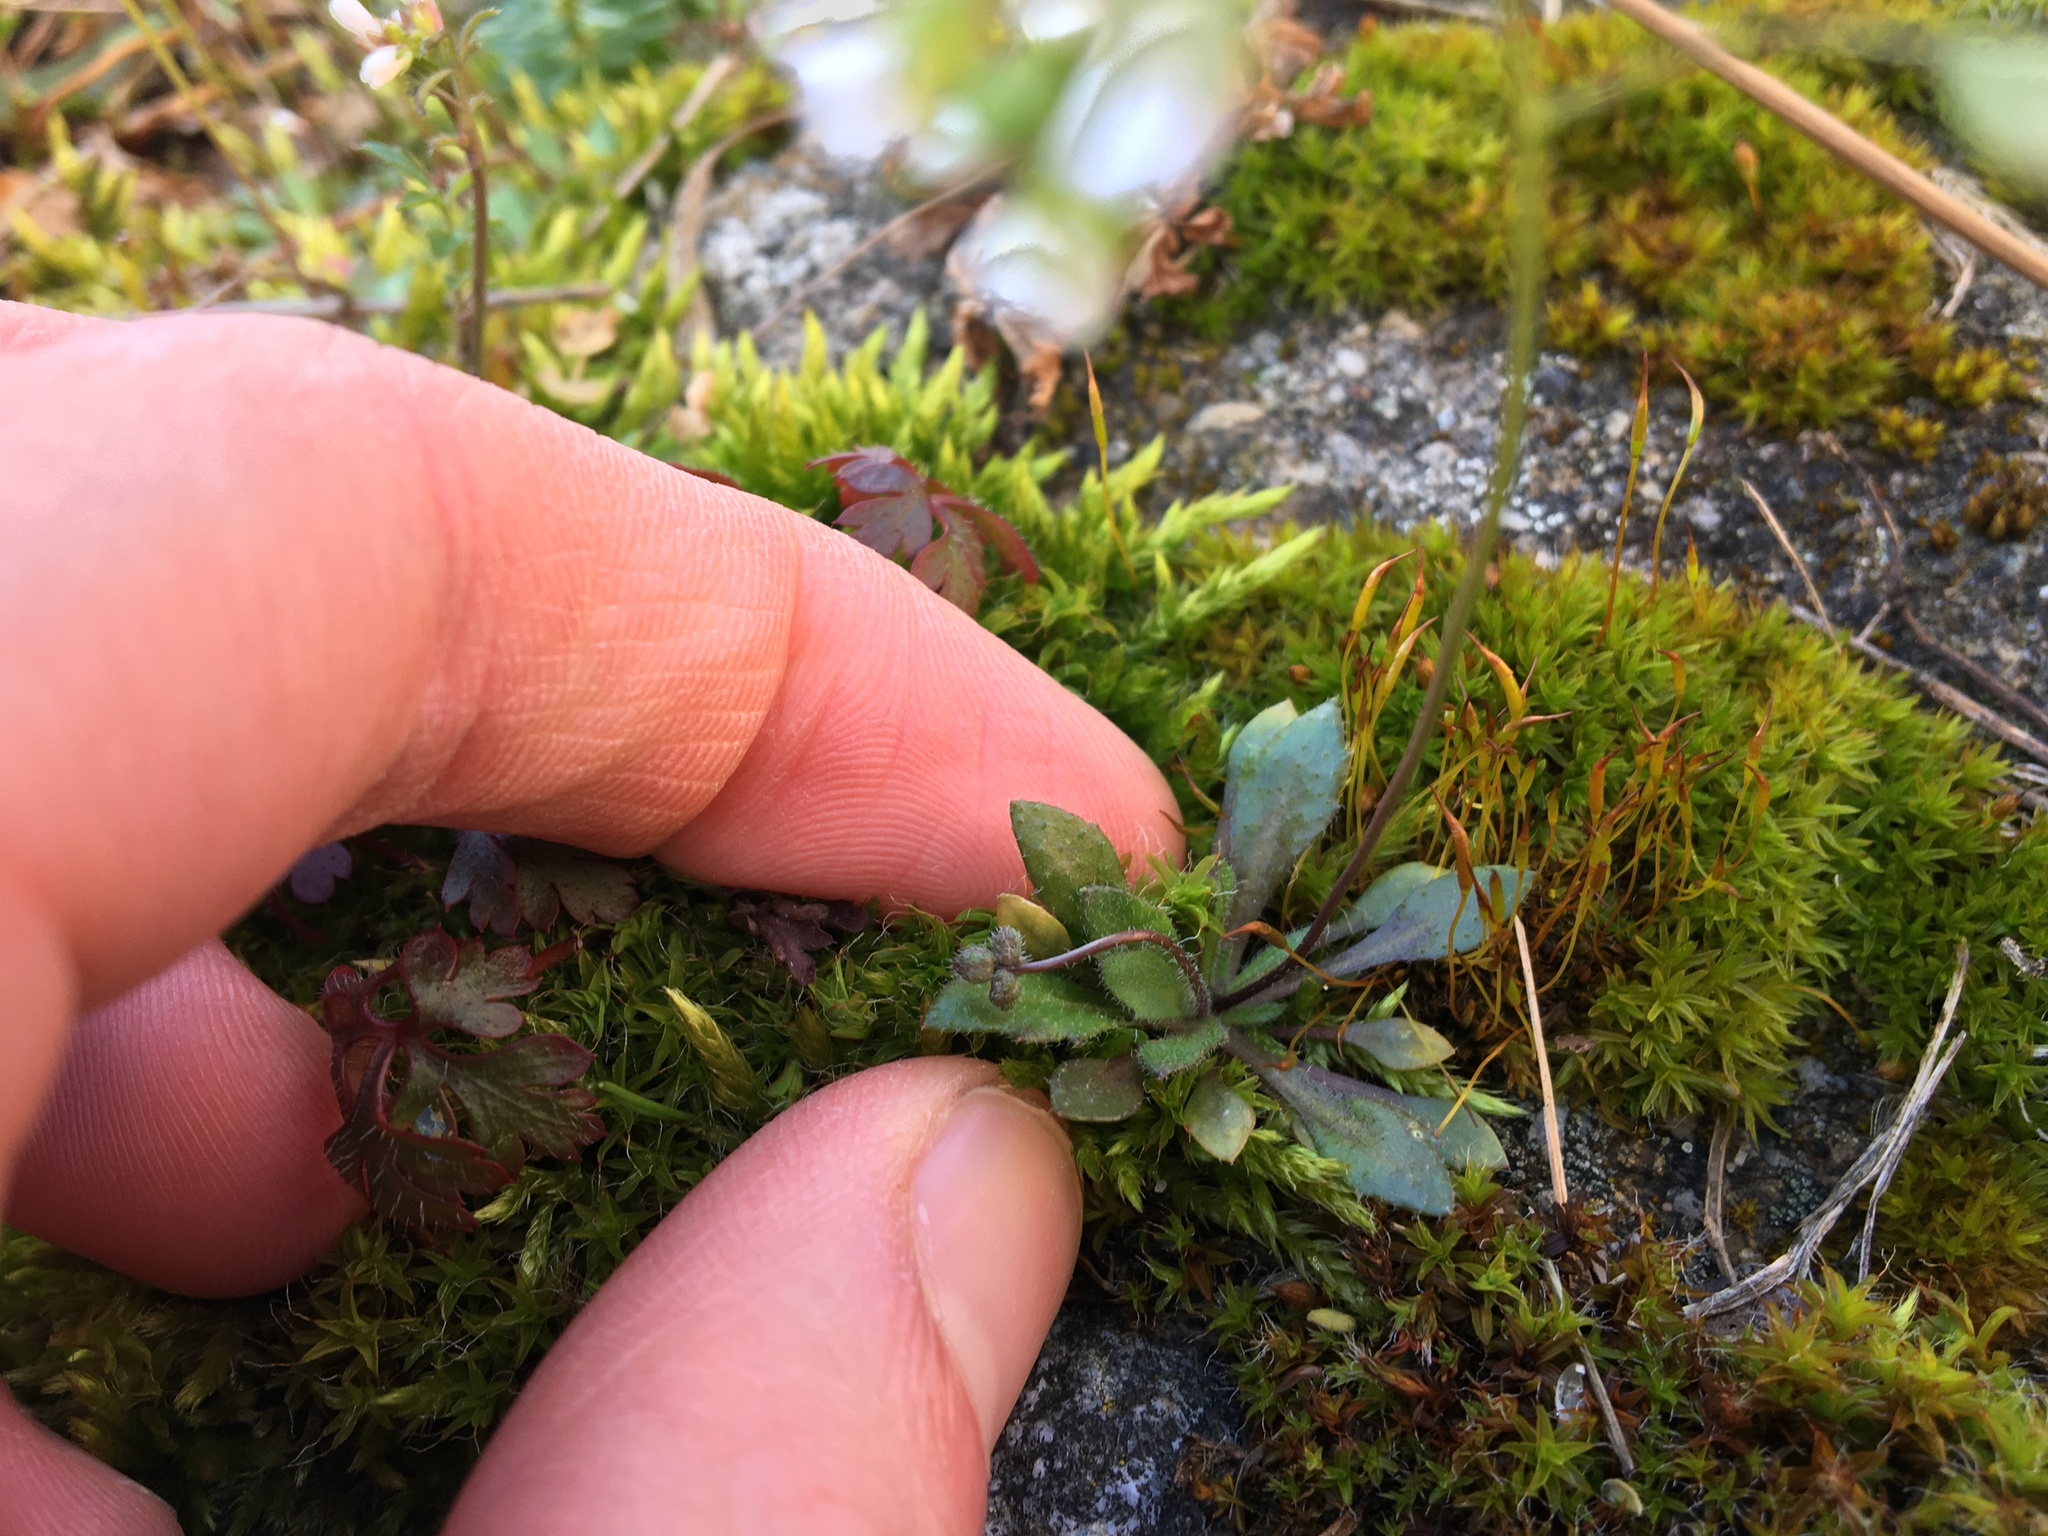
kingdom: Plantae
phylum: Tracheophyta
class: Magnoliopsida
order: Brassicales
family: Brassicaceae
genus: Draba
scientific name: Draba verna
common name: Spring draba
